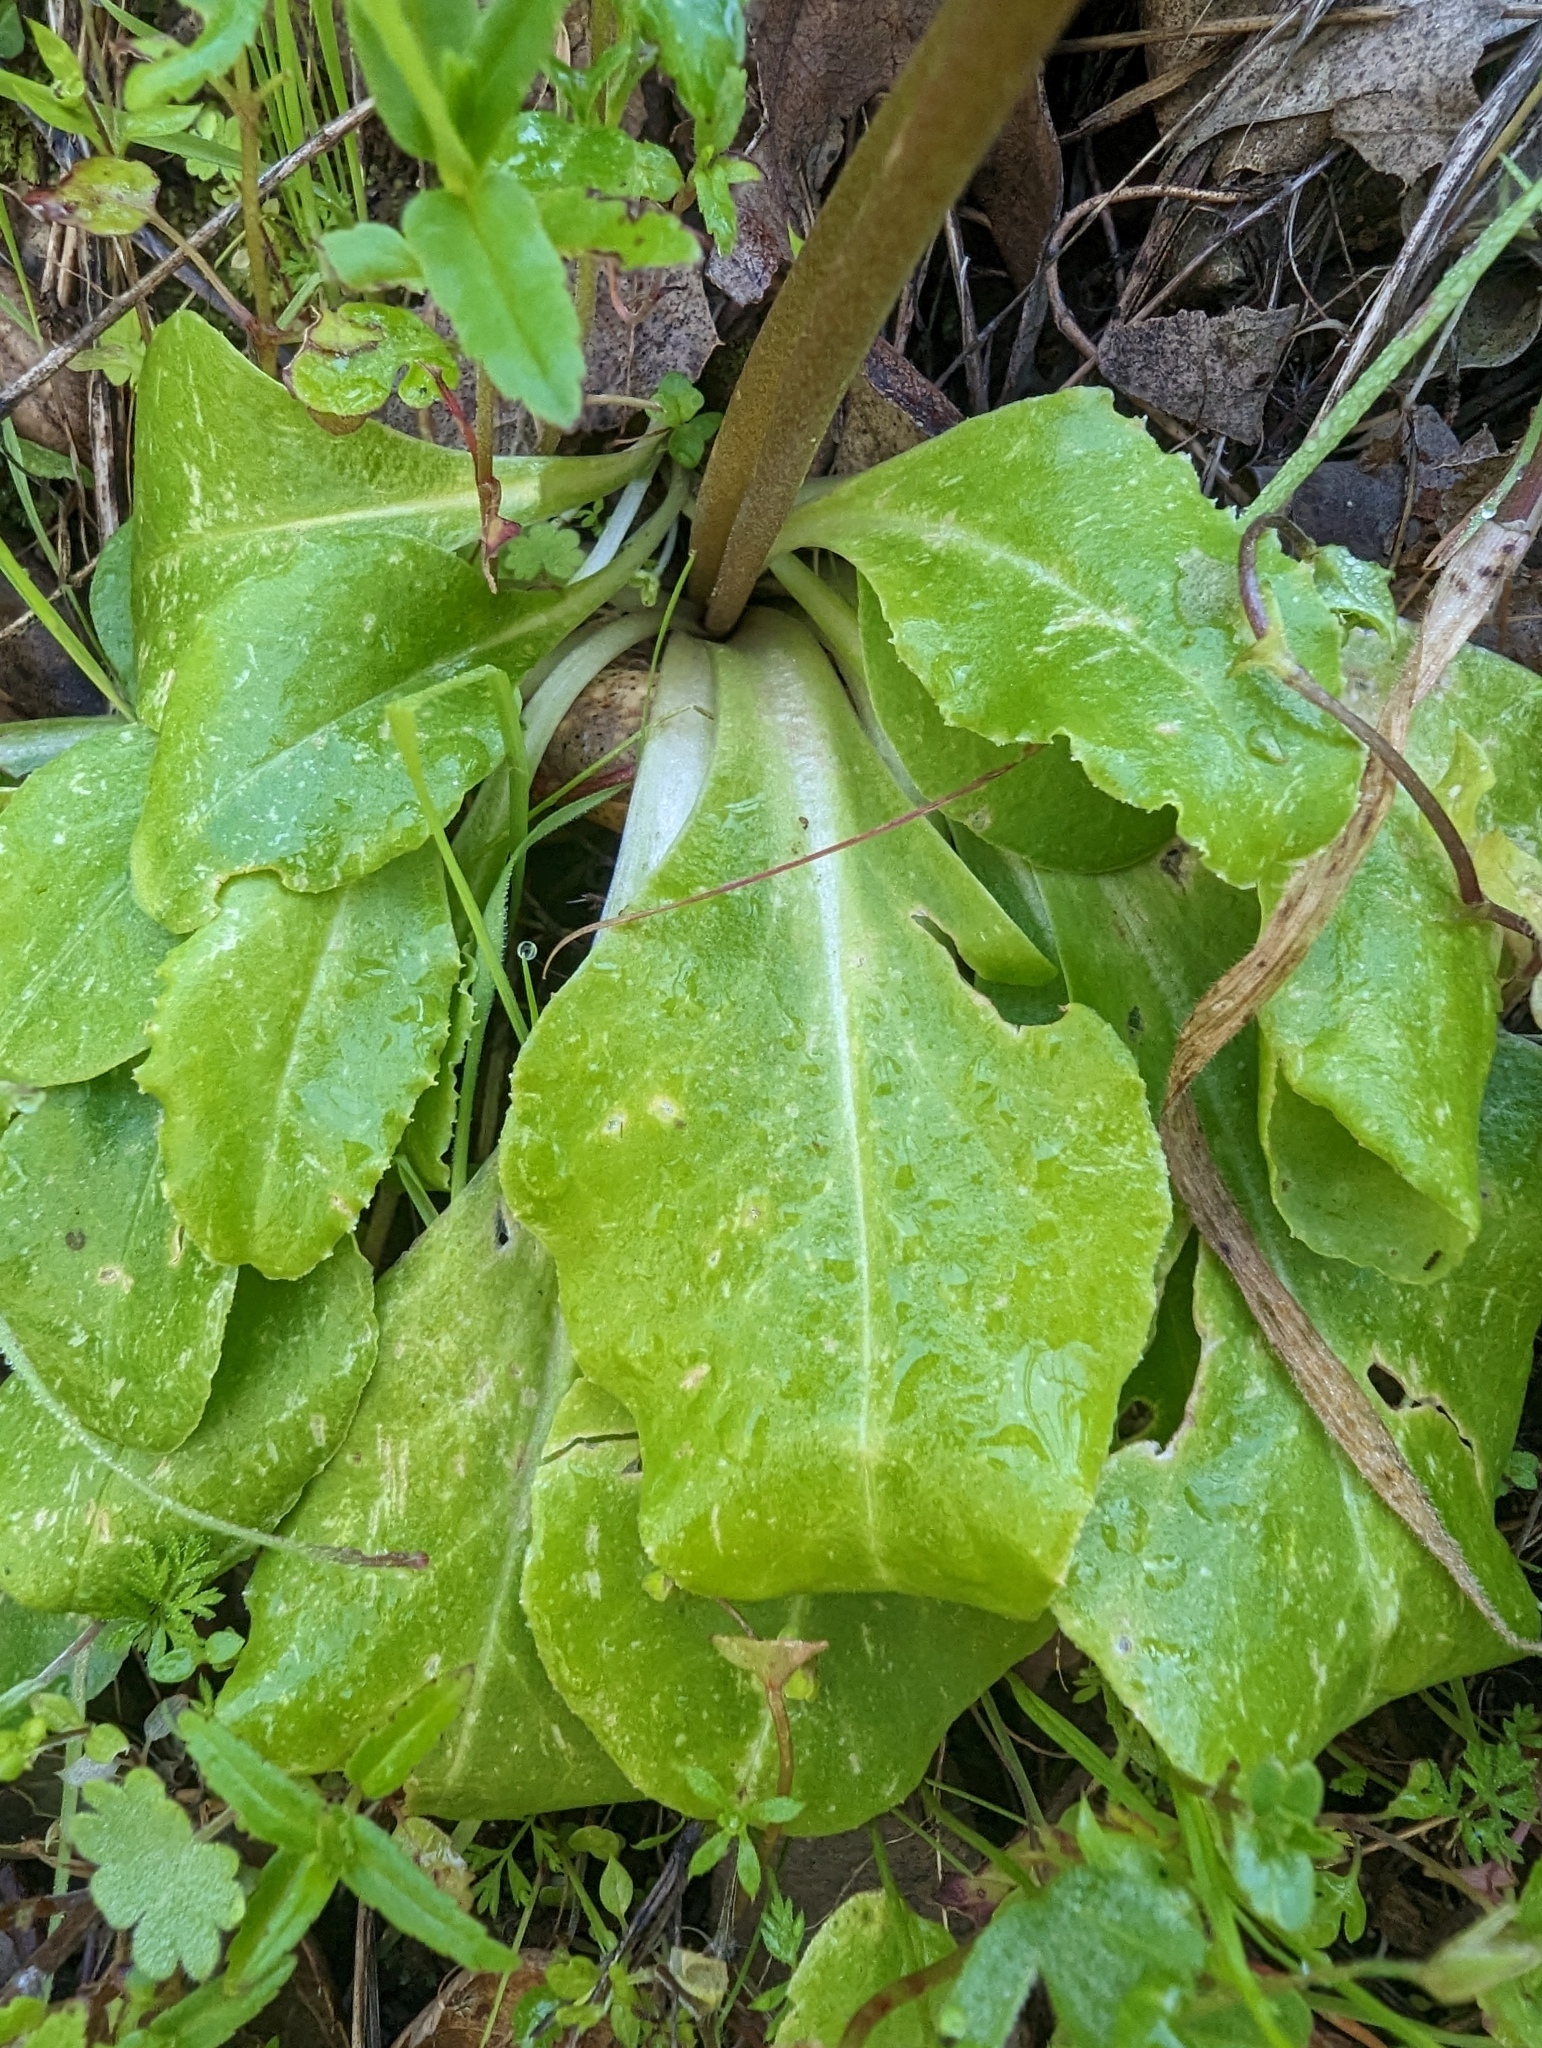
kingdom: Plantae
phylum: Tracheophyta
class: Magnoliopsida
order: Ericales
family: Primulaceae
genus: Dodecatheon
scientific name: Dodecatheon hendersonii
